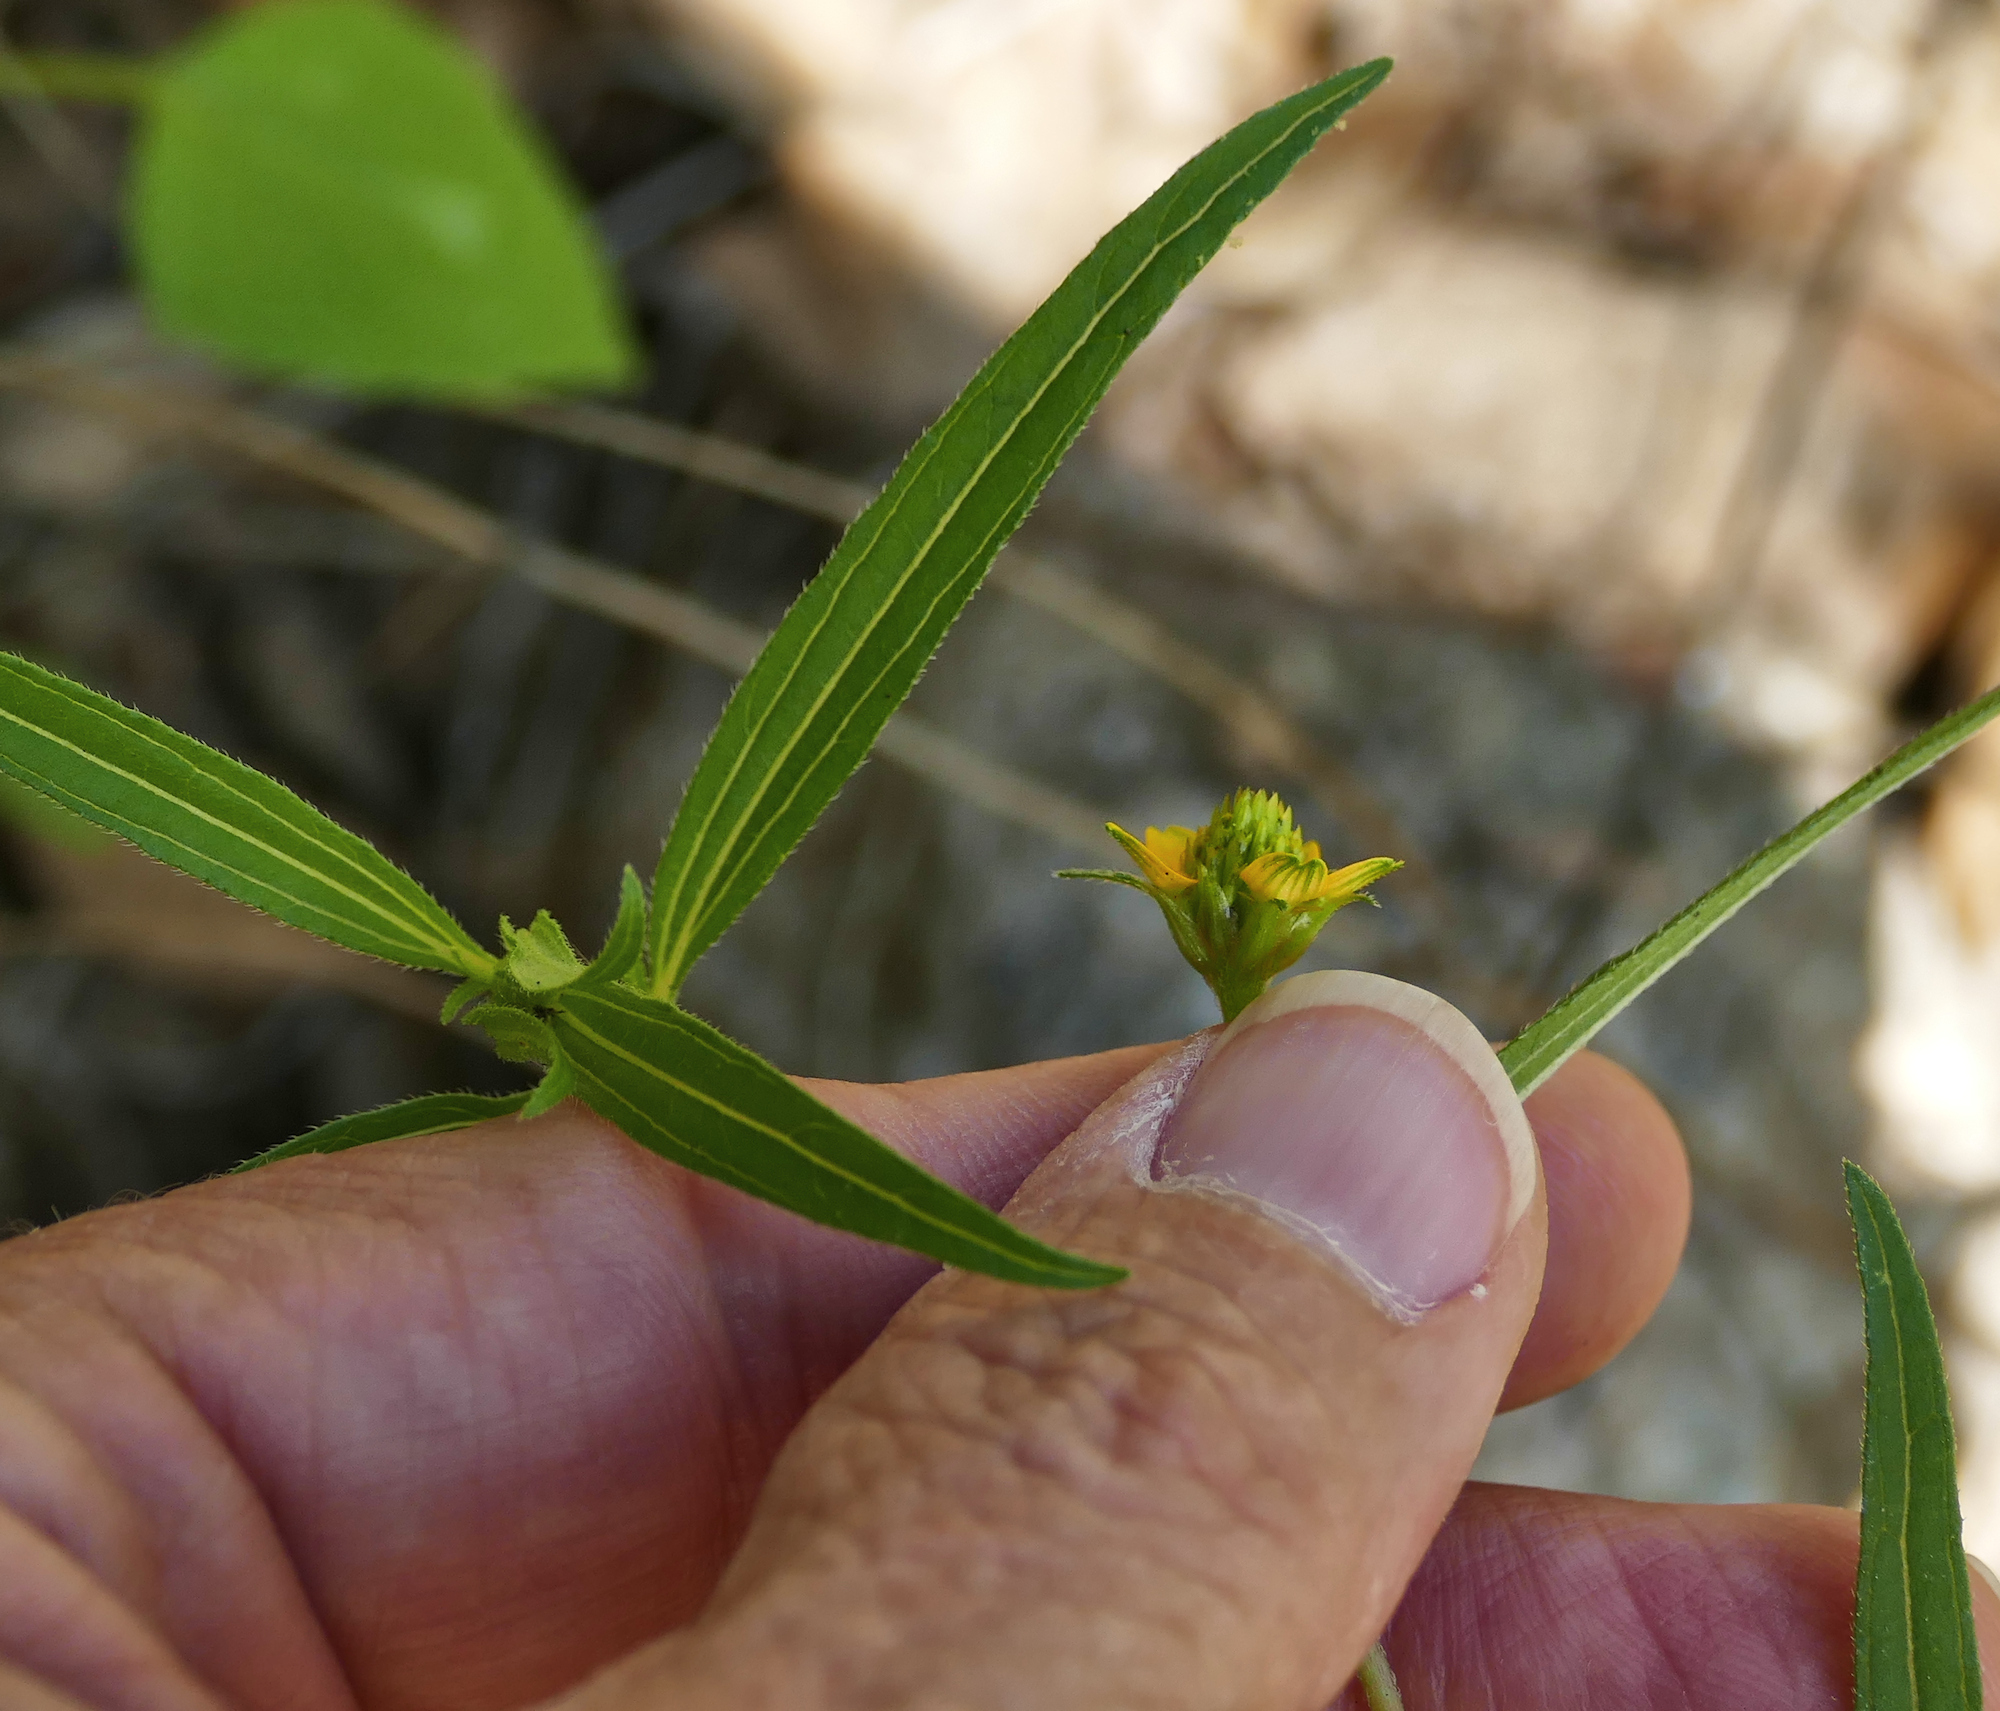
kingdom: Plantae
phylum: Tracheophyta
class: Magnoliopsida
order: Asterales
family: Asteraceae
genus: Sanvitalia
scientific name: Sanvitalia abertii
